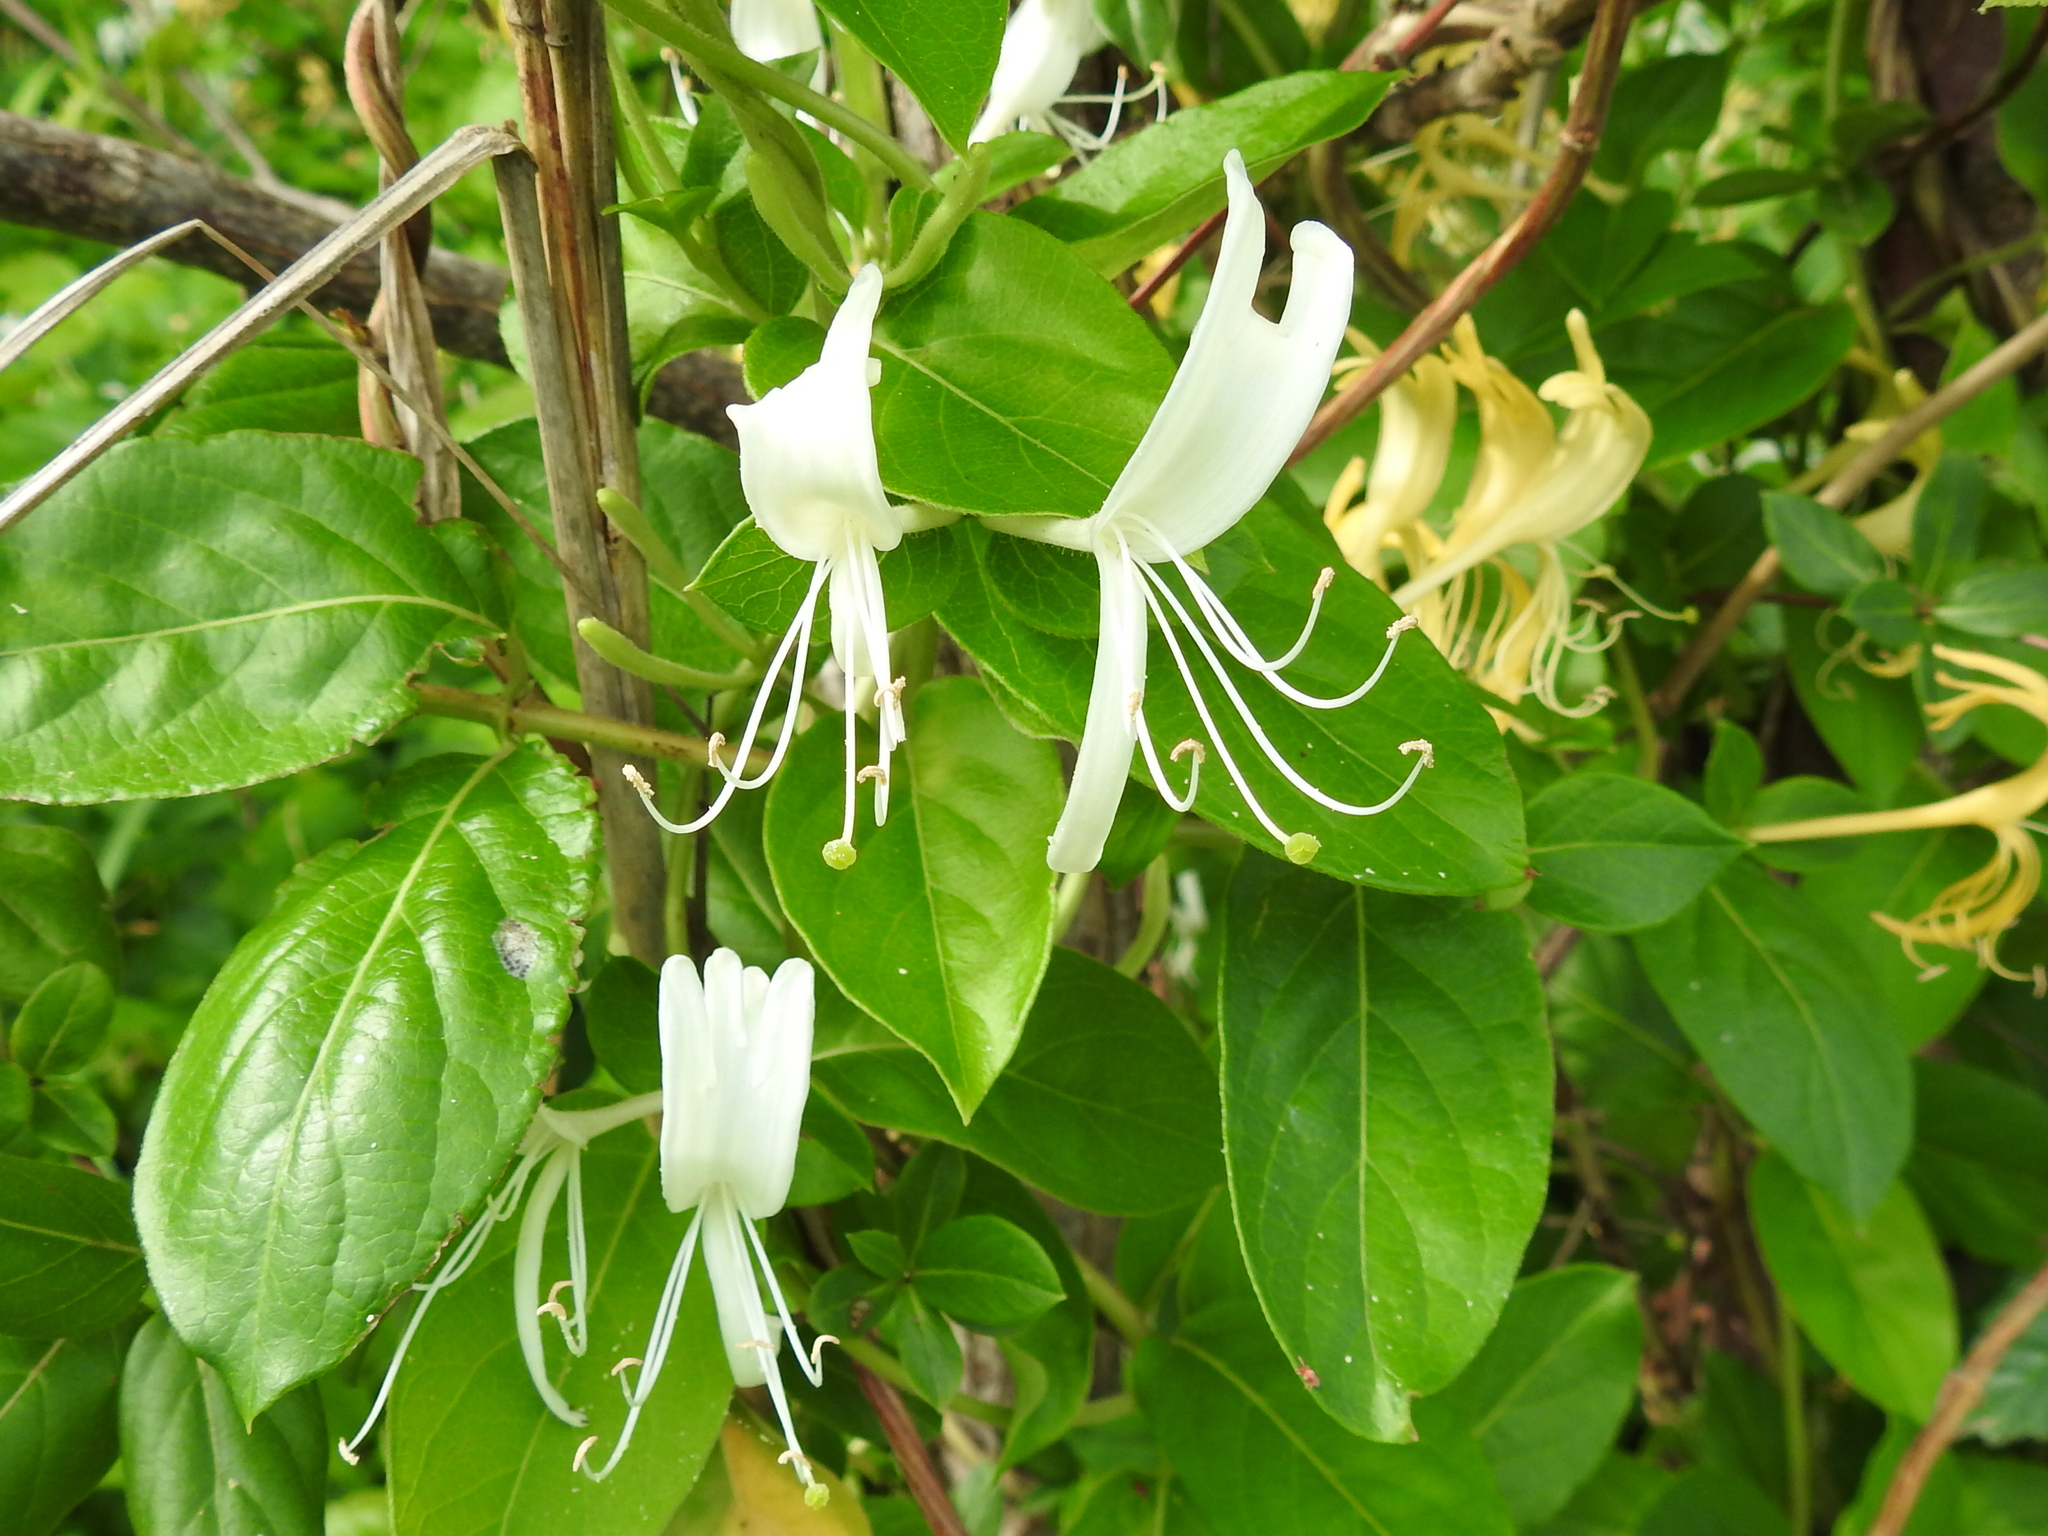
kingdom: Plantae
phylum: Tracheophyta
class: Magnoliopsida
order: Dipsacales
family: Caprifoliaceae
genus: Lonicera
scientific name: Lonicera japonica
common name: Japanese honeysuckle
